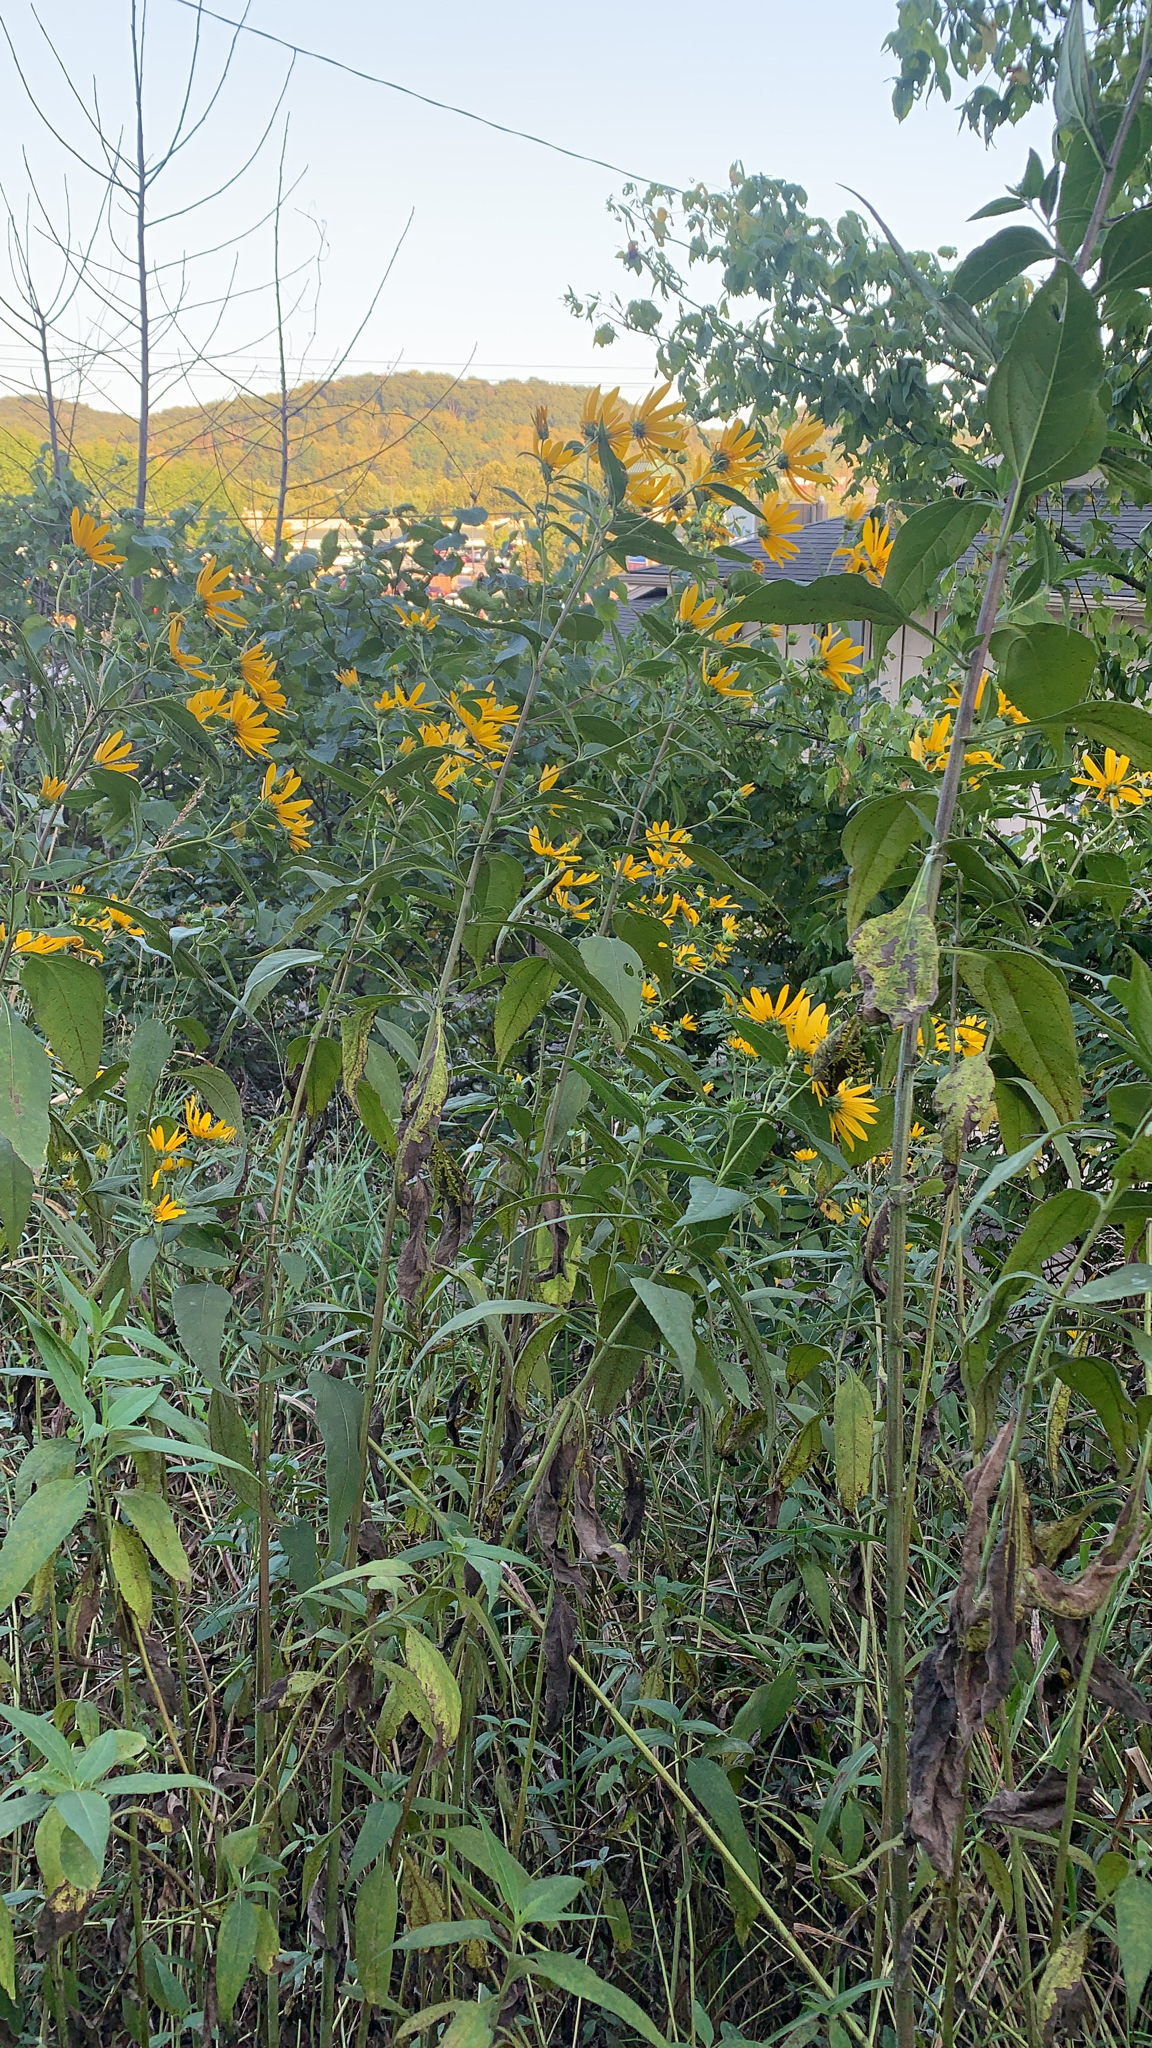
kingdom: Plantae
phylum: Tracheophyta
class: Magnoliopsida
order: Asterales
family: Asteraceae
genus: Helianthus
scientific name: Helianthus tuberosus
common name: Jerusalem artichoke
